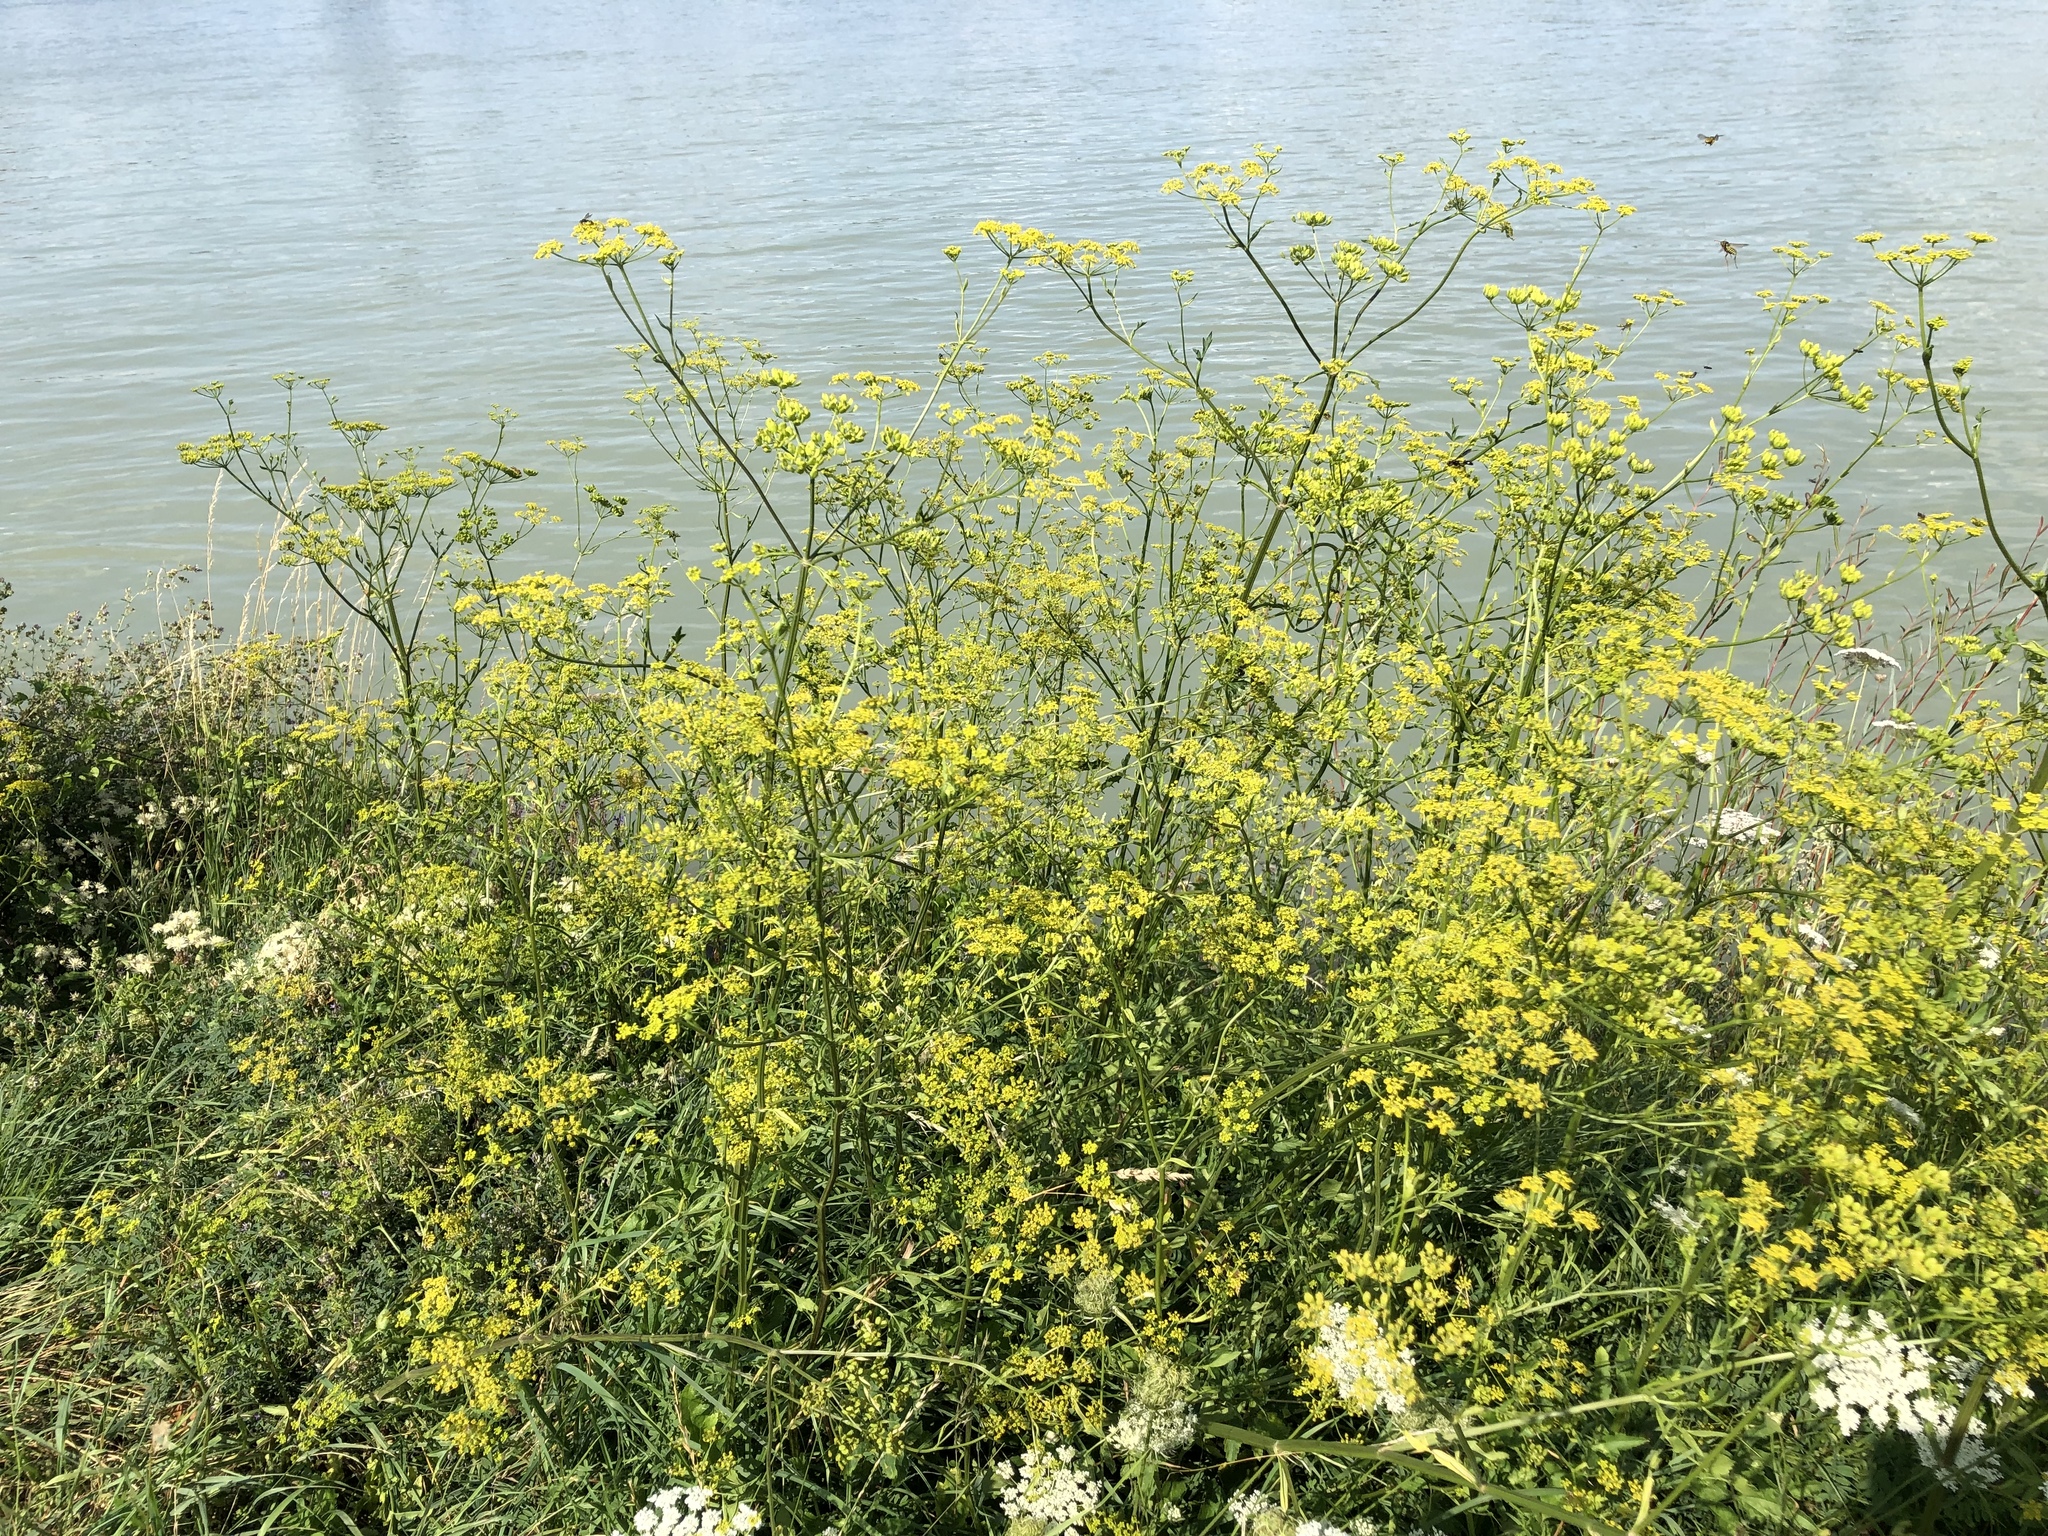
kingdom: Plantae
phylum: Tracheophyta
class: Magnoliopsida
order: Apiales
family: Apiaceae
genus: Pastinaca
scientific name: Pastinaca sativa
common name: Wild parsnip
